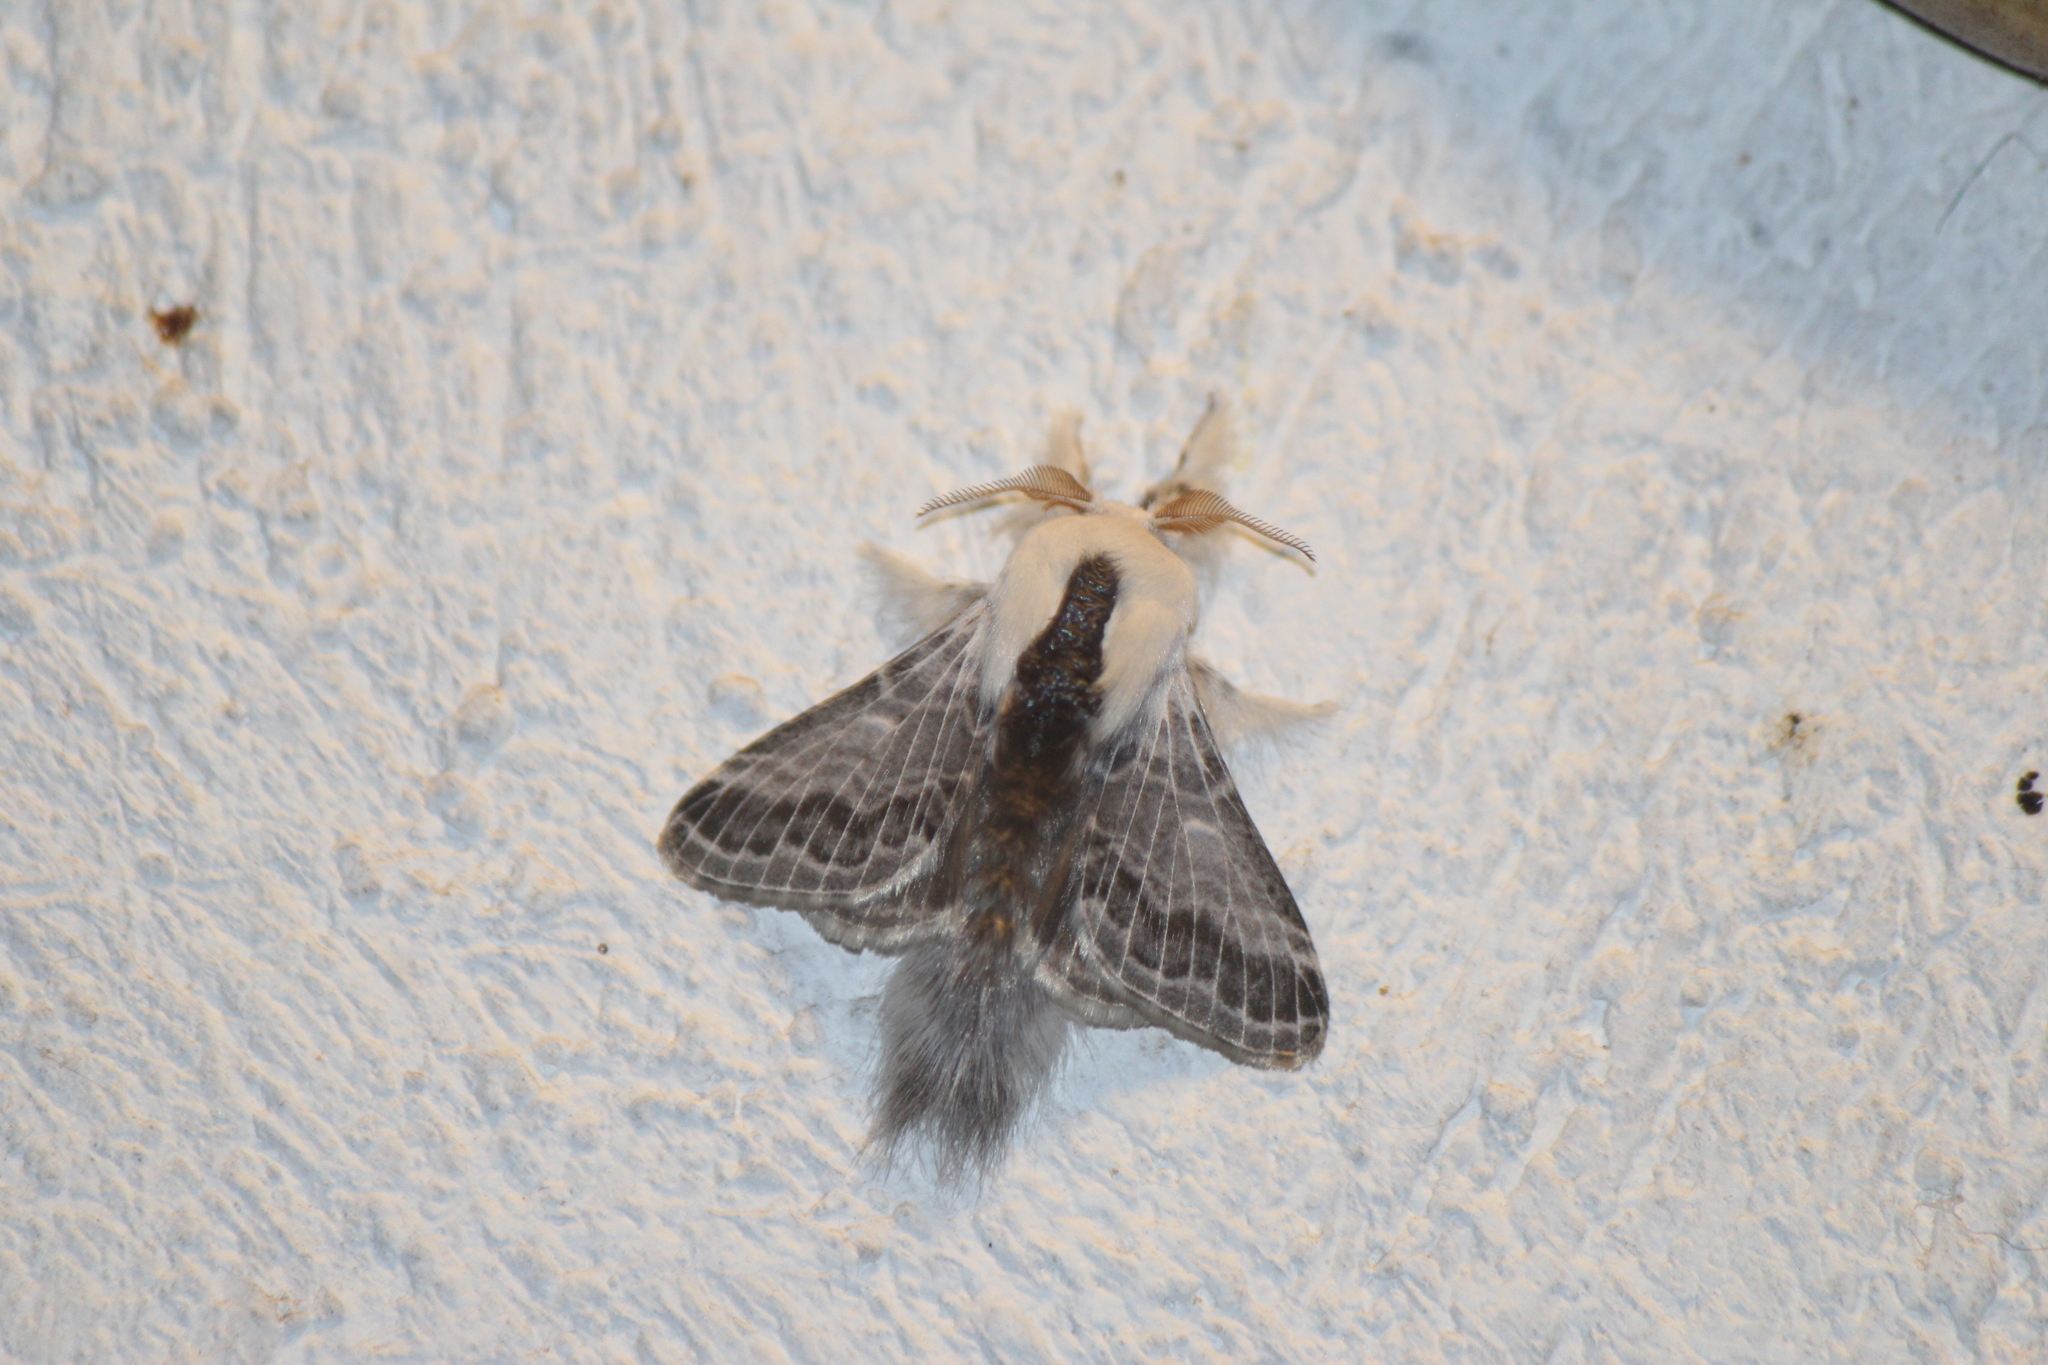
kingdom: Animalia
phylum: Arthropoda
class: Insecta
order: Lepidoptera
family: Lasiocampidae
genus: Tolype
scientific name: Tolype velleda
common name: Large tolype moth
